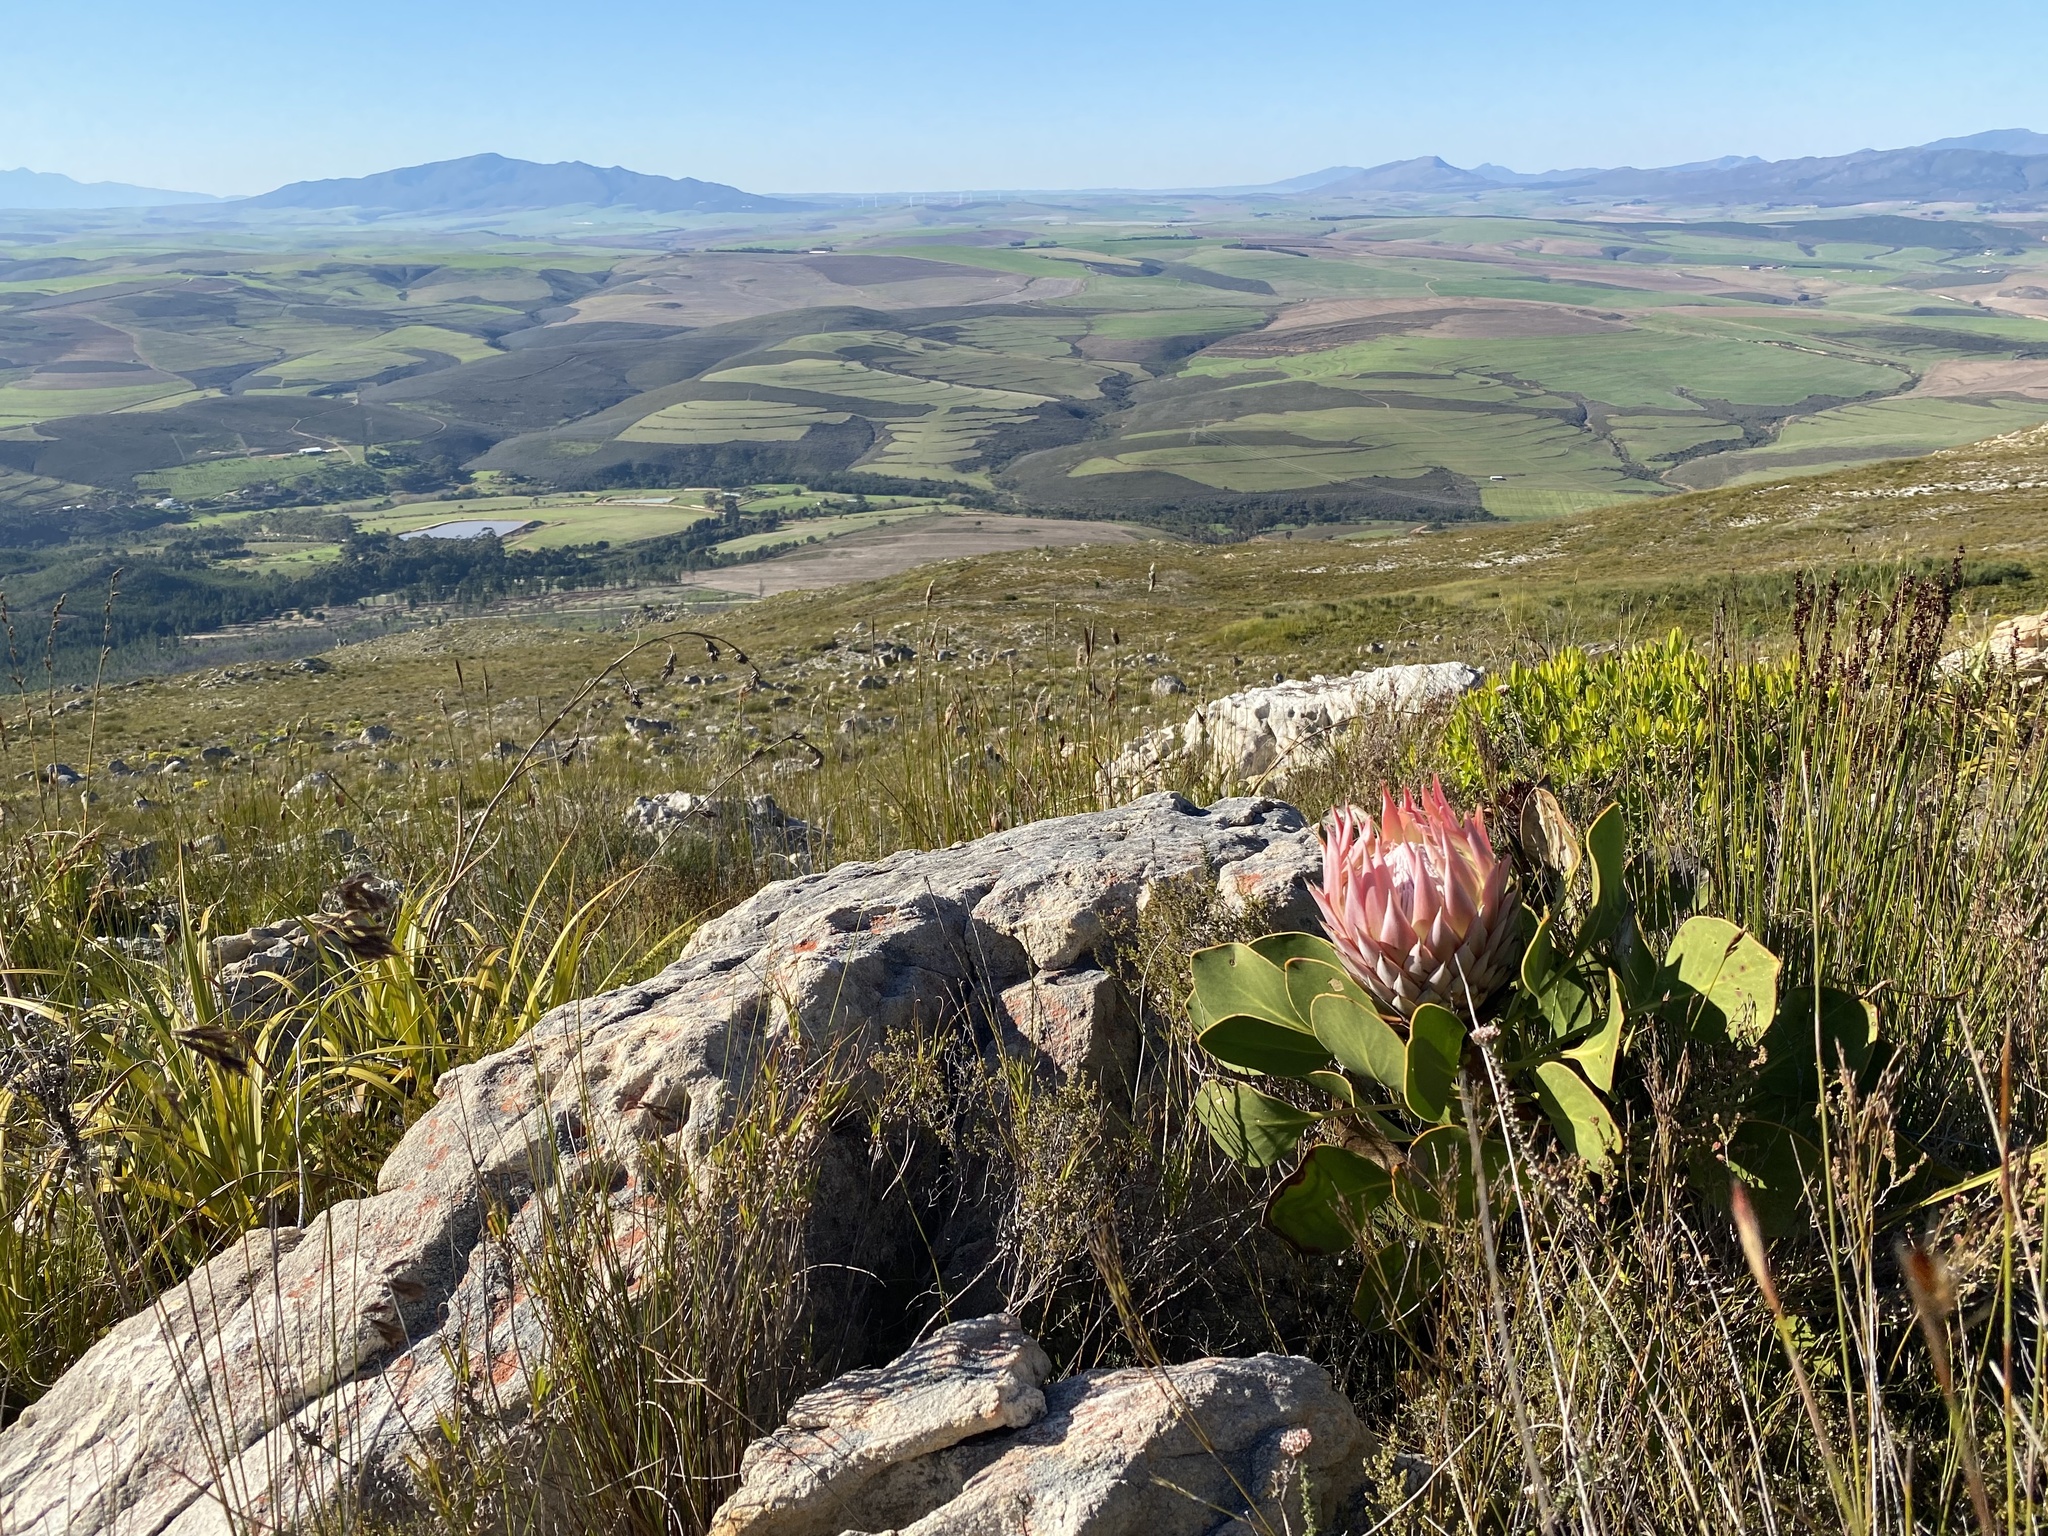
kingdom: Plantae
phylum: Tracheophyta
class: Magnoliopsida
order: Proteales
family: Proteaceae
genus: Protea
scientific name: Protea cynaroides
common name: King protea
